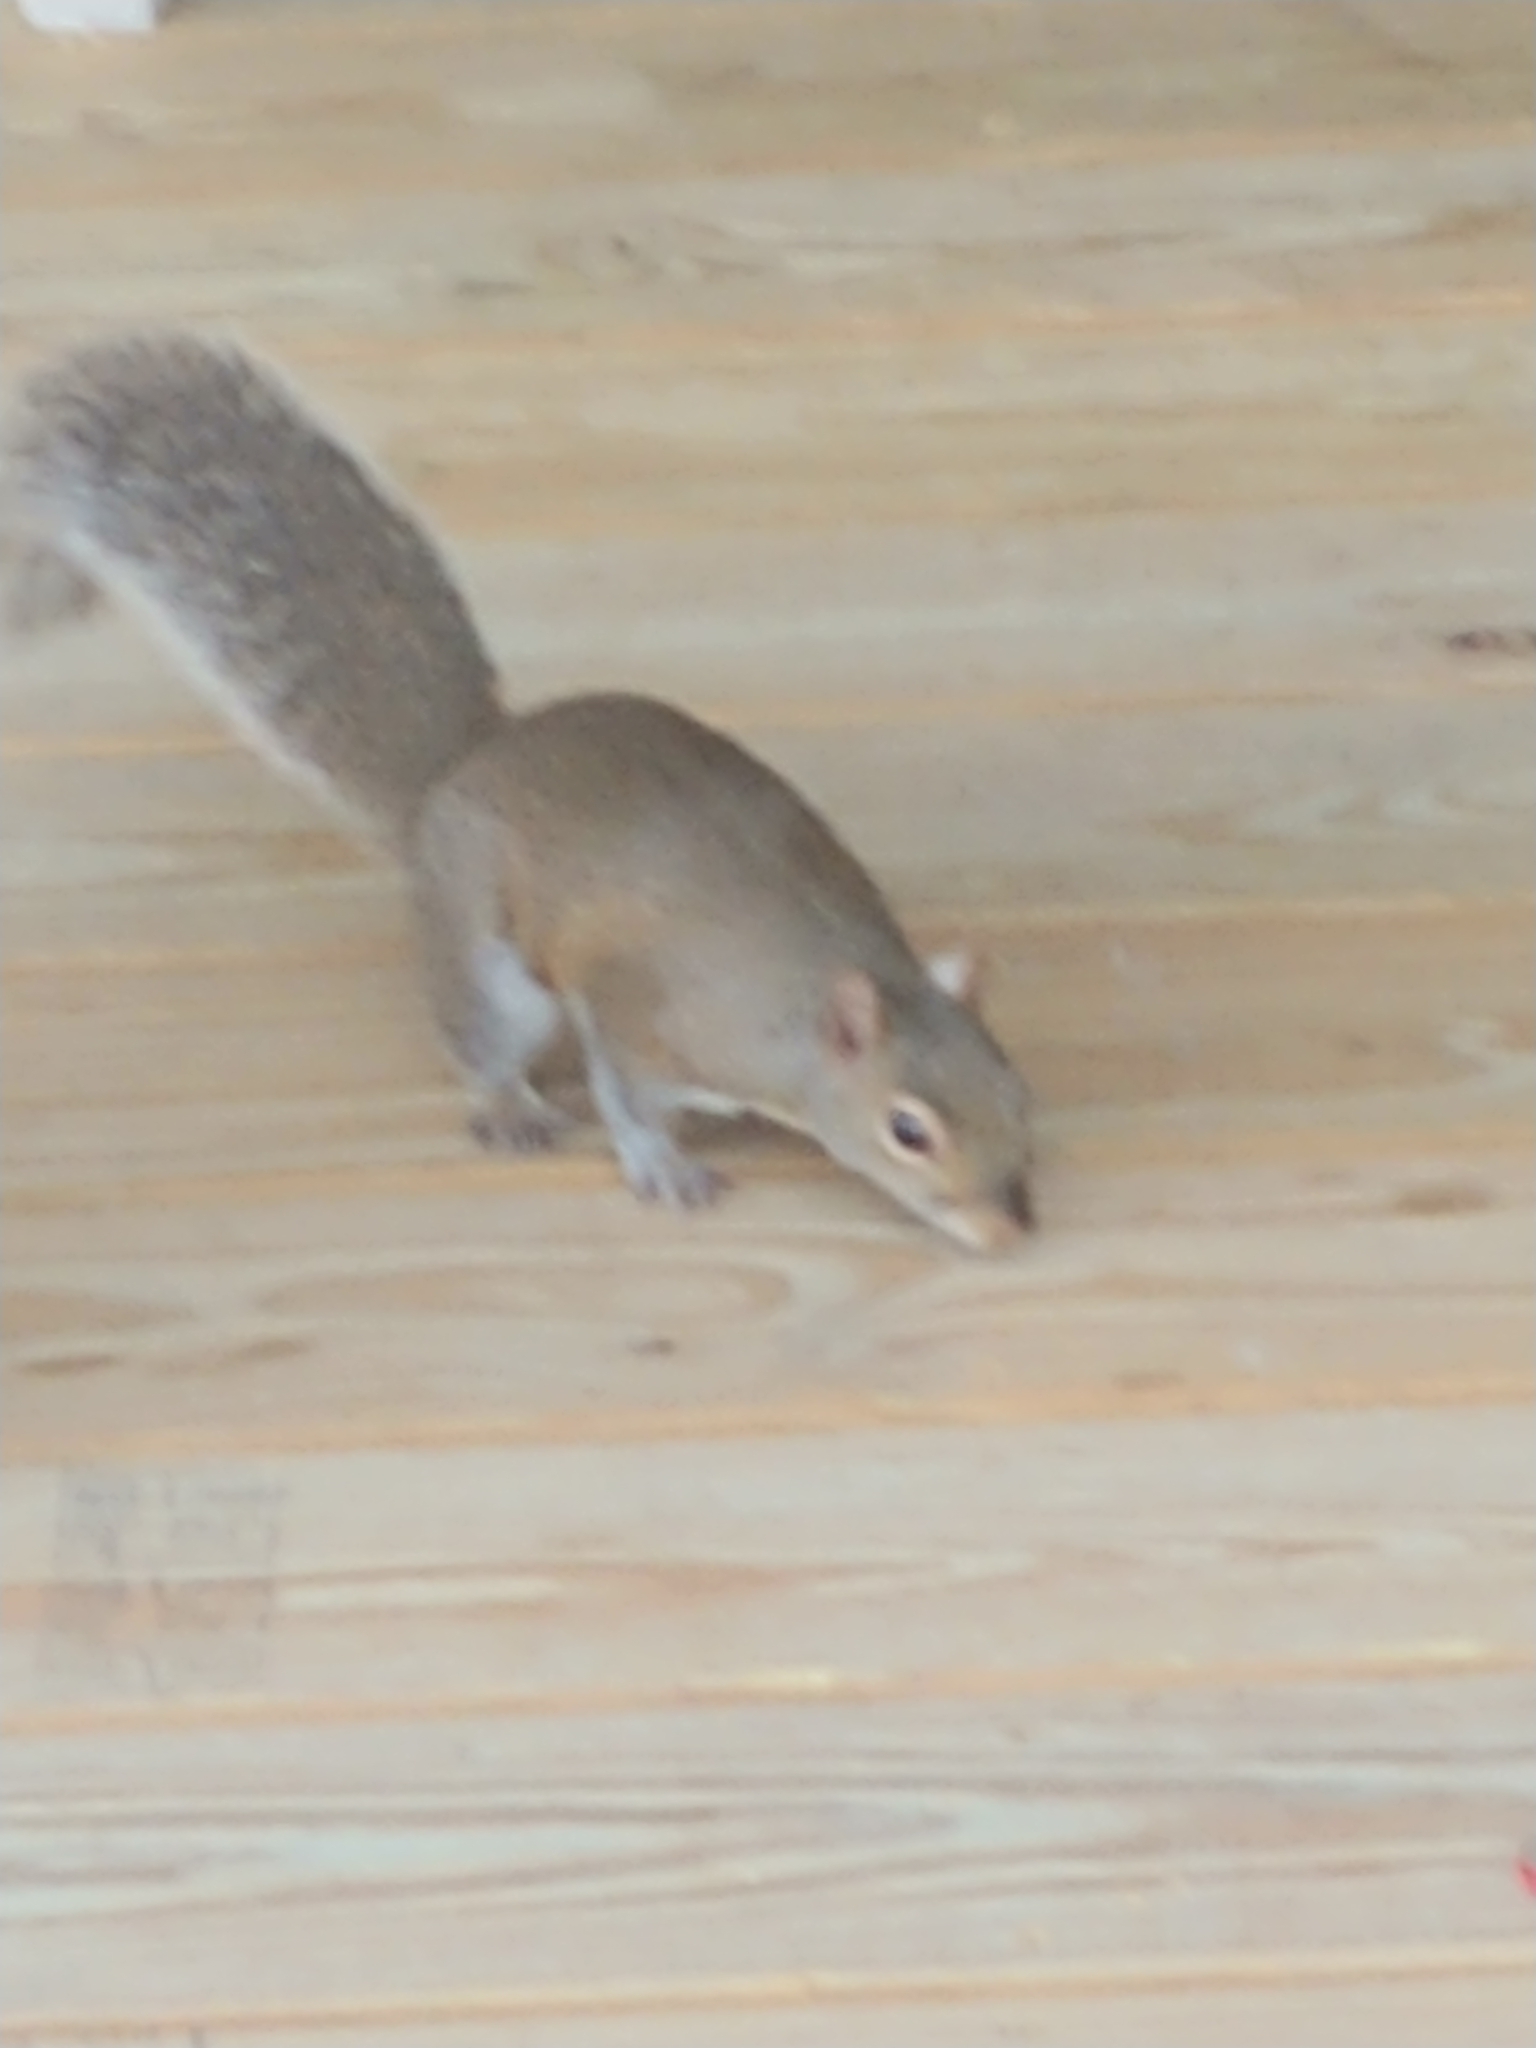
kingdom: Animalia
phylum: Chordata
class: Mammalia
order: Rodentia
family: Sciuridae
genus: Sciurus
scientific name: Sciurus carolinensis
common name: Eastern gray squirrel
